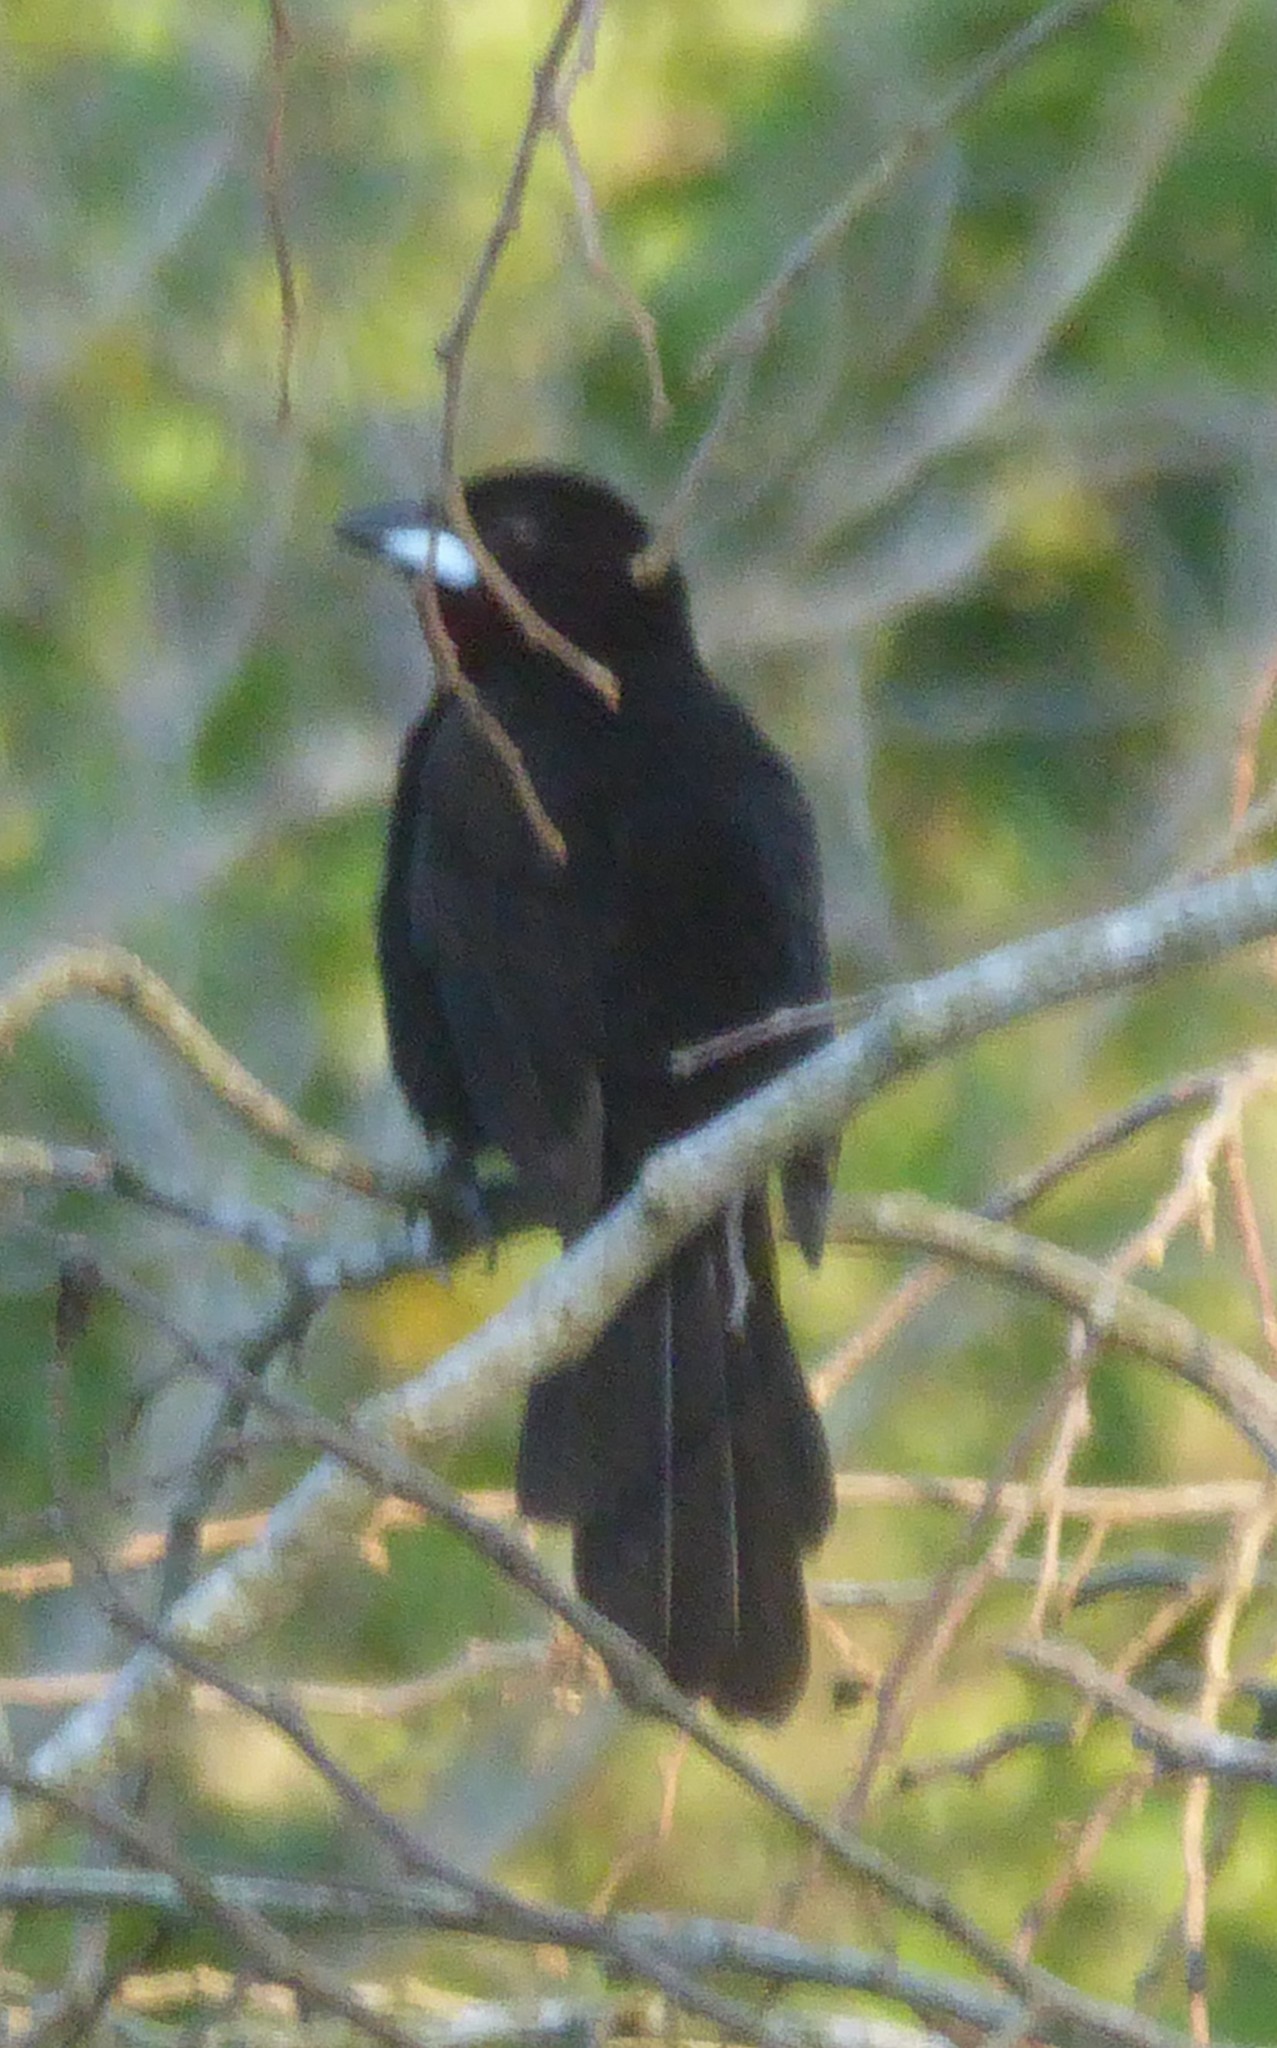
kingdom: Animalia
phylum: Chordata
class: Aves
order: Passeriformes
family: Thraupidae
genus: Ramphocelus
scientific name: Ramphocelus carbo
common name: Silver-beaked tanager
